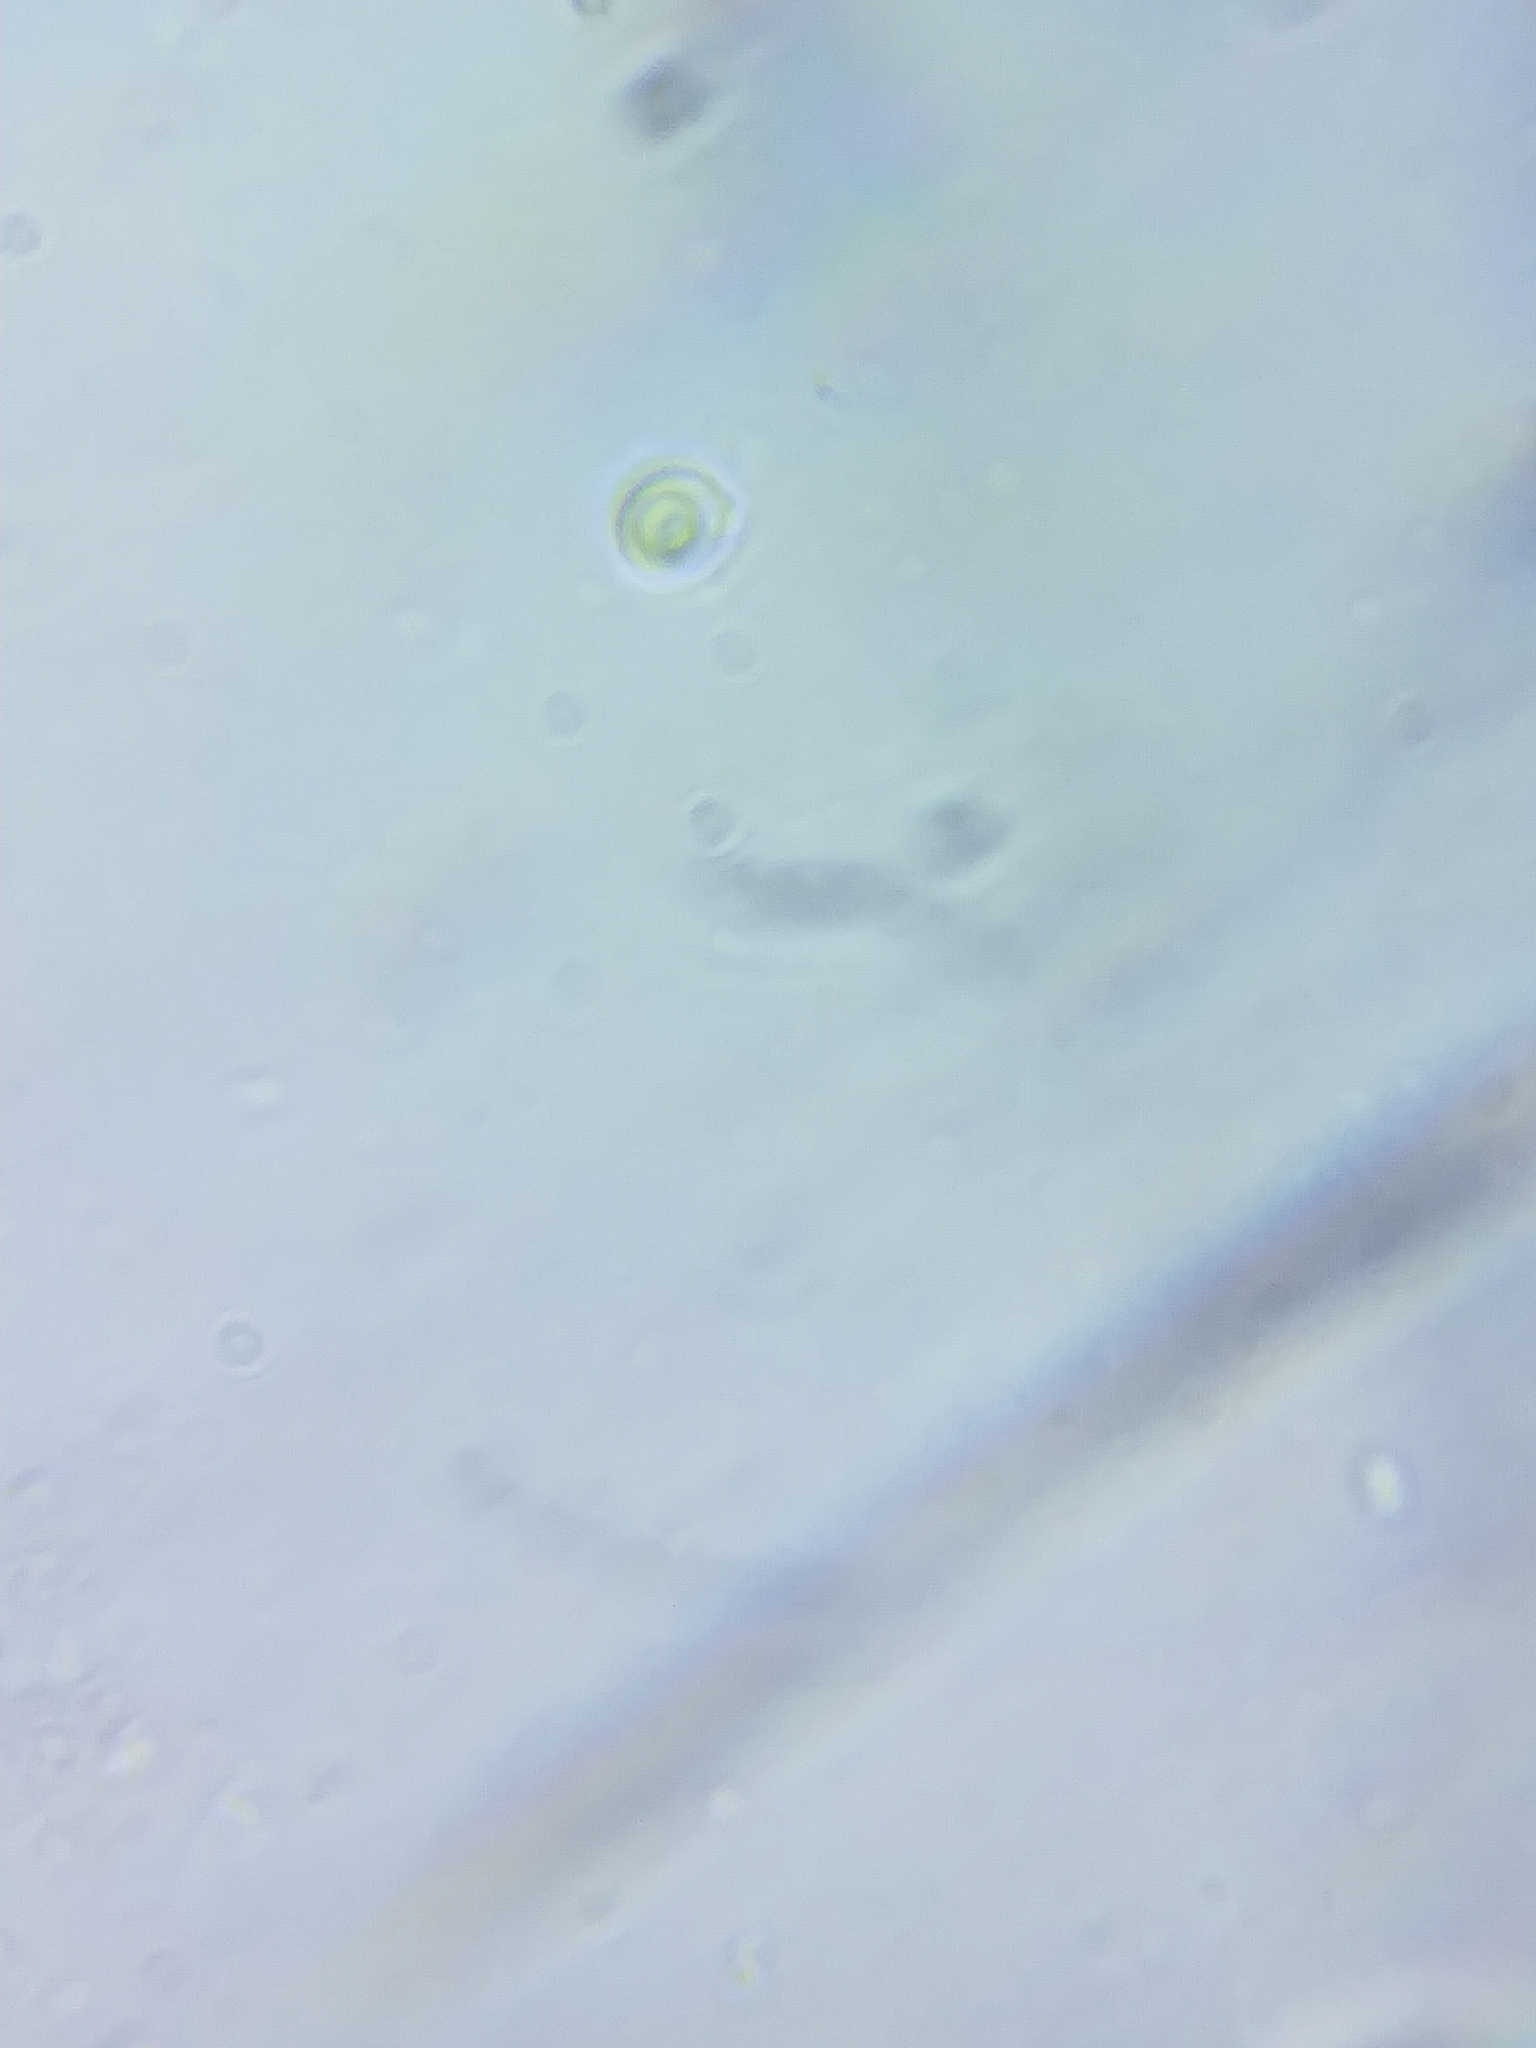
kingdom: Fungi
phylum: Basidiomycota
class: Agaricomycetes
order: Agaricales
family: Entolomataceae
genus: Clitopilus
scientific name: Clitopilus hobsonii
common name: Miller's oysterling
